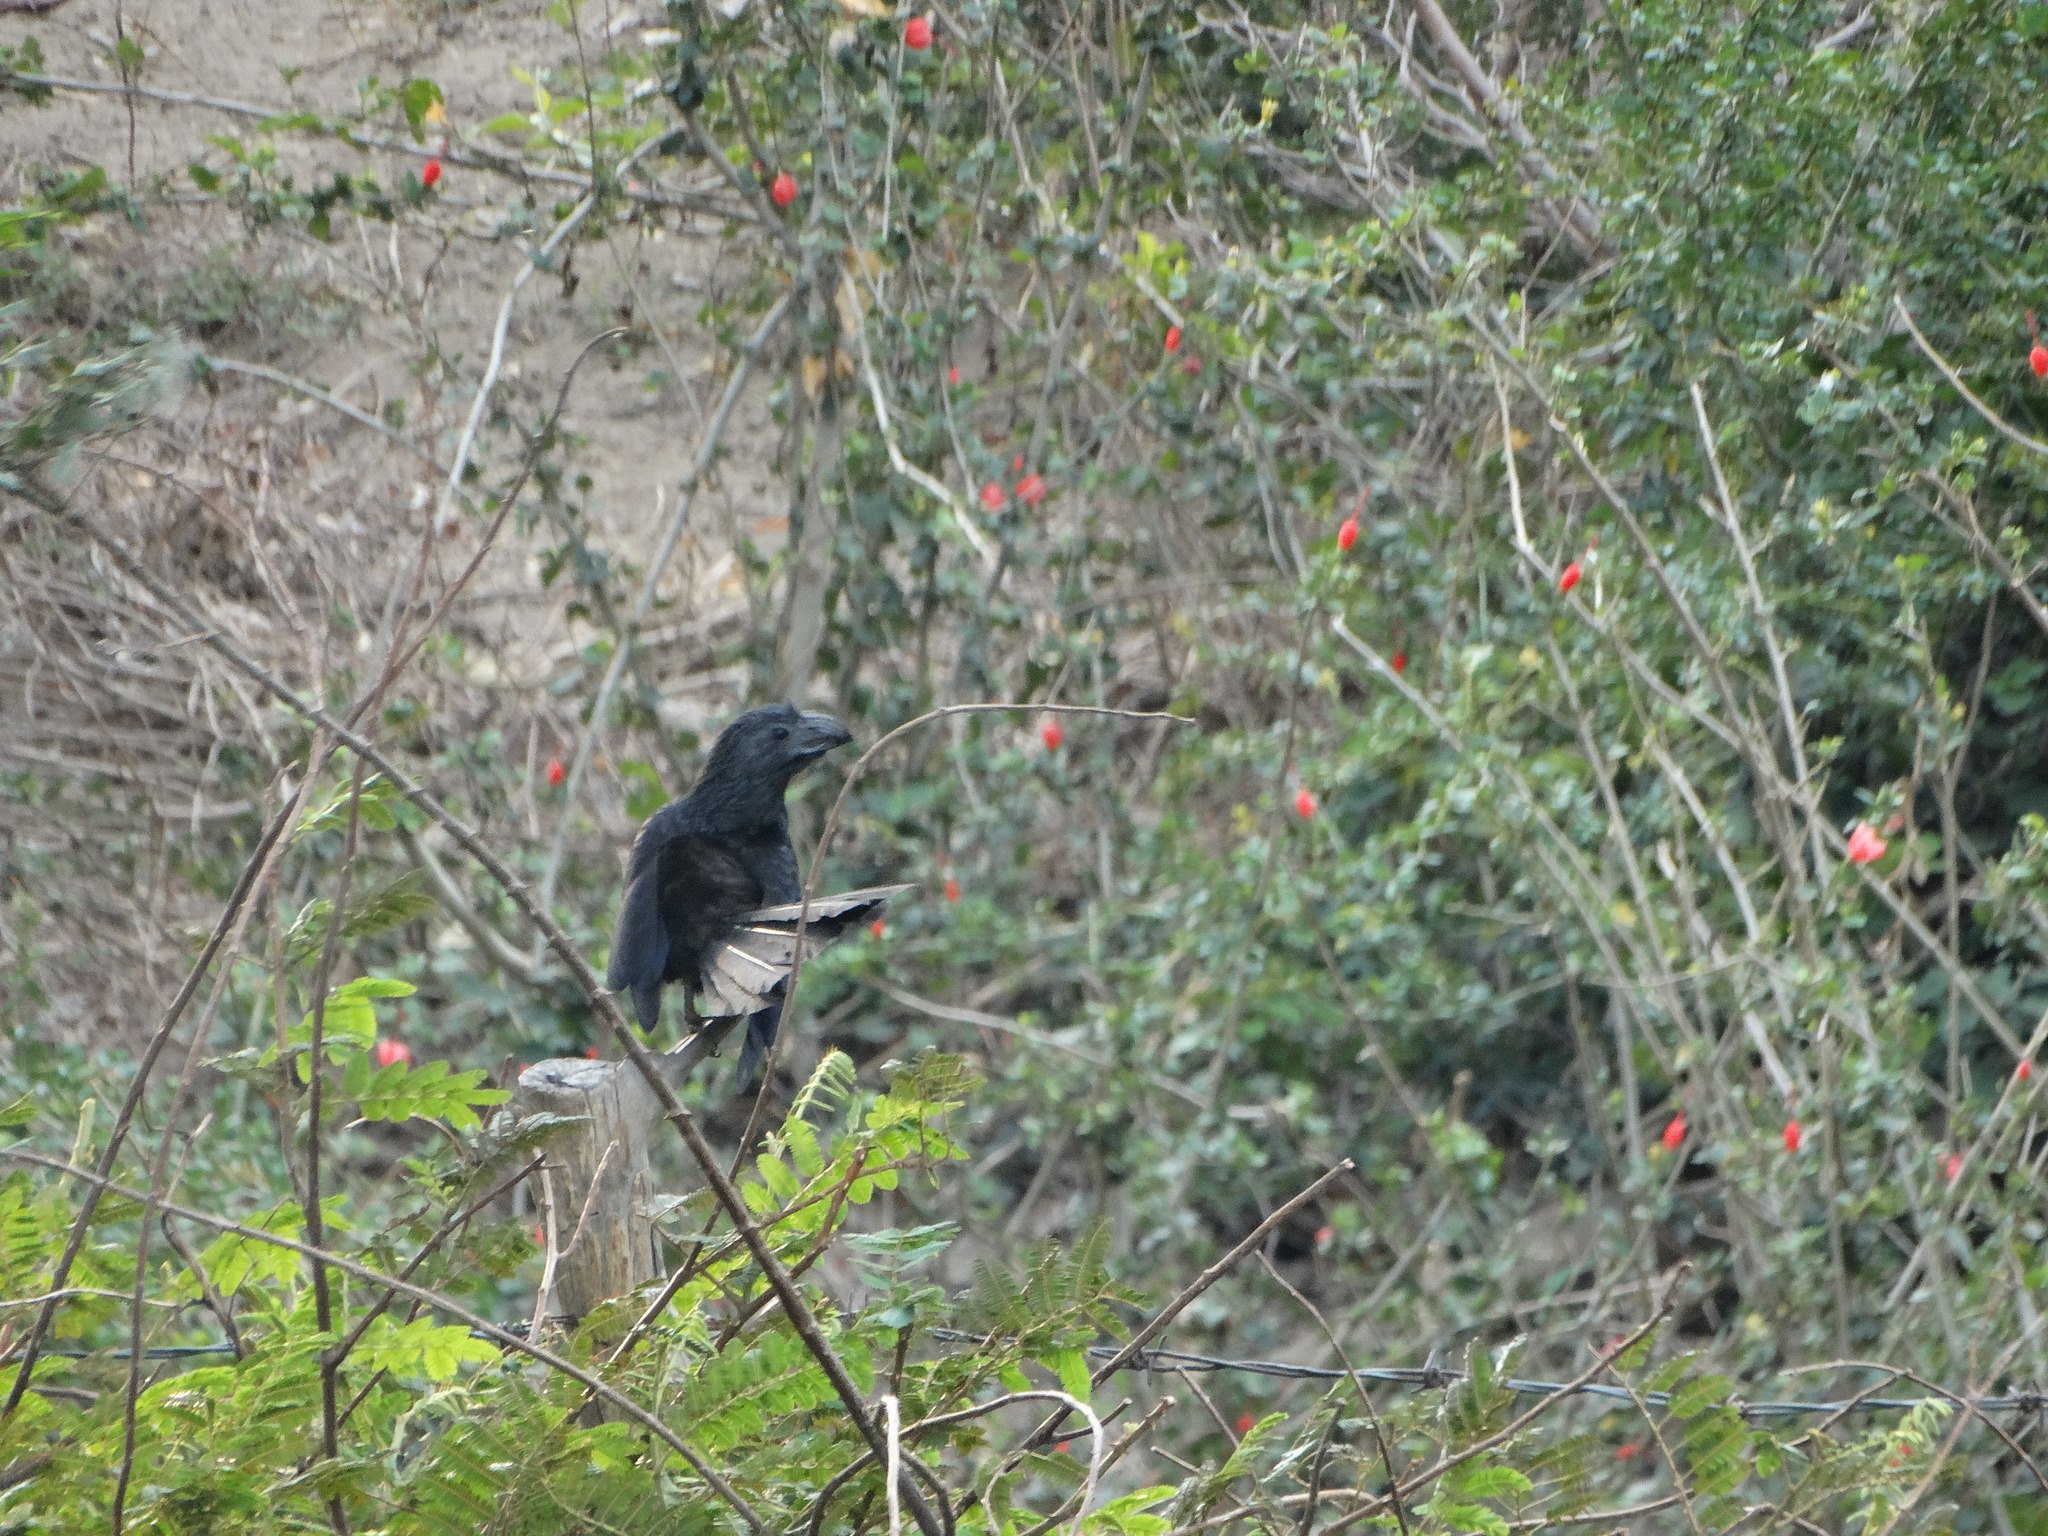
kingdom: Animalia
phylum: Chordata
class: Aves
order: Cuculiformes
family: Cuculidae
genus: Crotophaga
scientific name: Crotophaga sulcirostris
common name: Groove-billed ani
